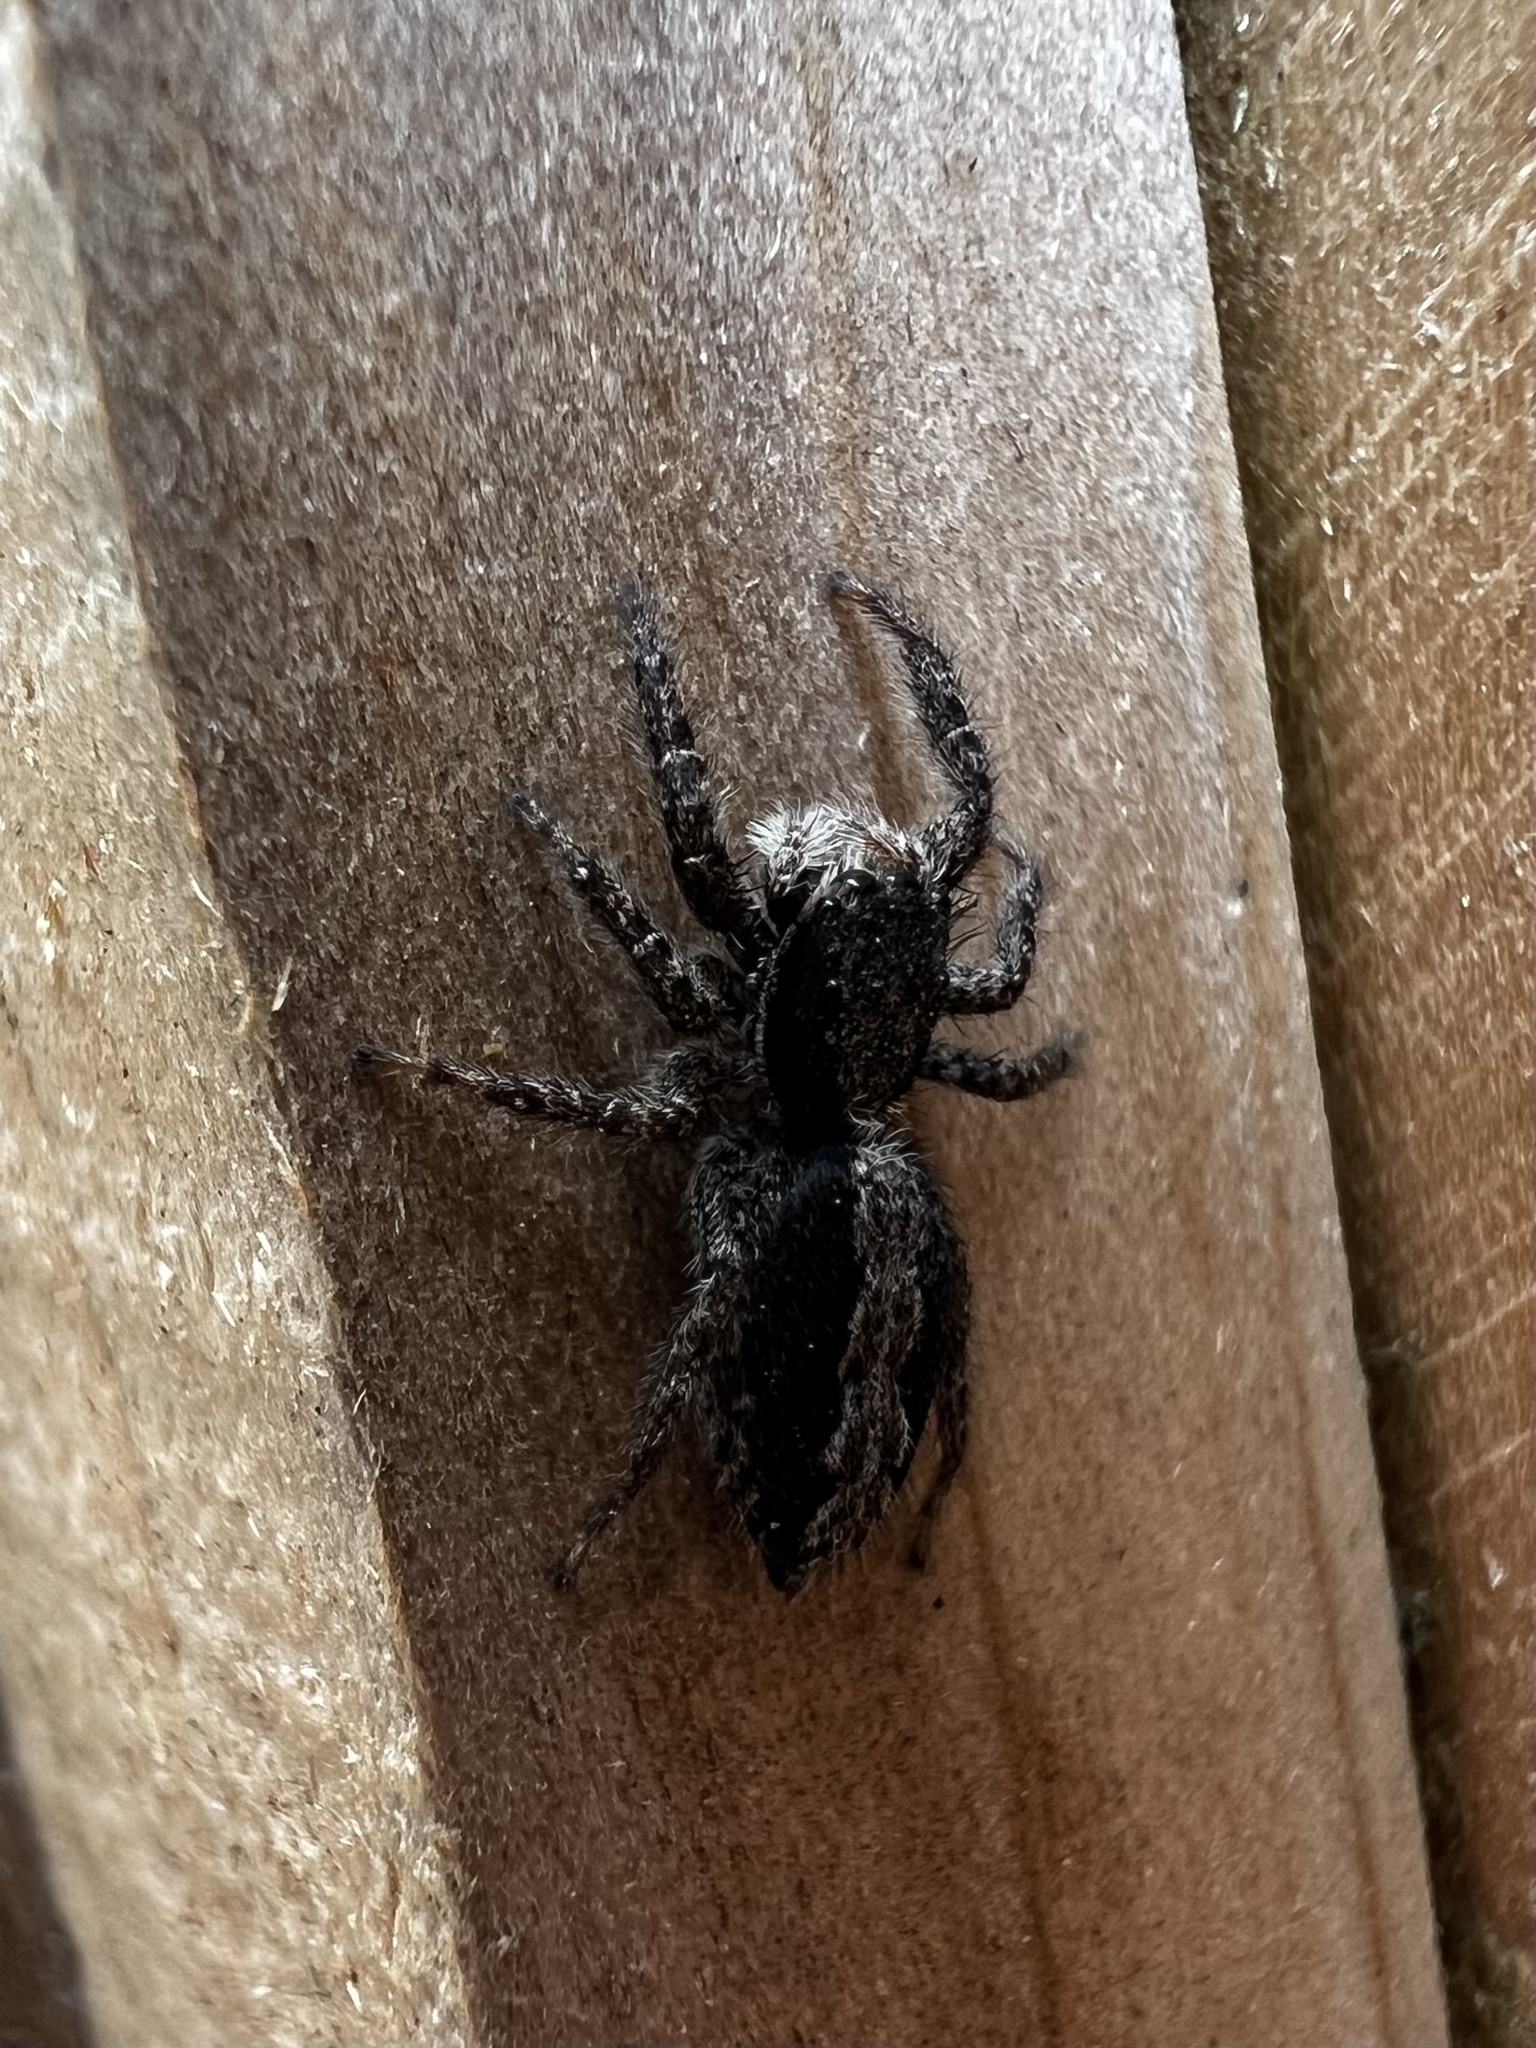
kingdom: Animalia
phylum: Arthropoda
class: Arachnida
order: Araneae
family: Salticidae
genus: Platycryptus
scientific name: Platycryptus californicus
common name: Jumping spiders
